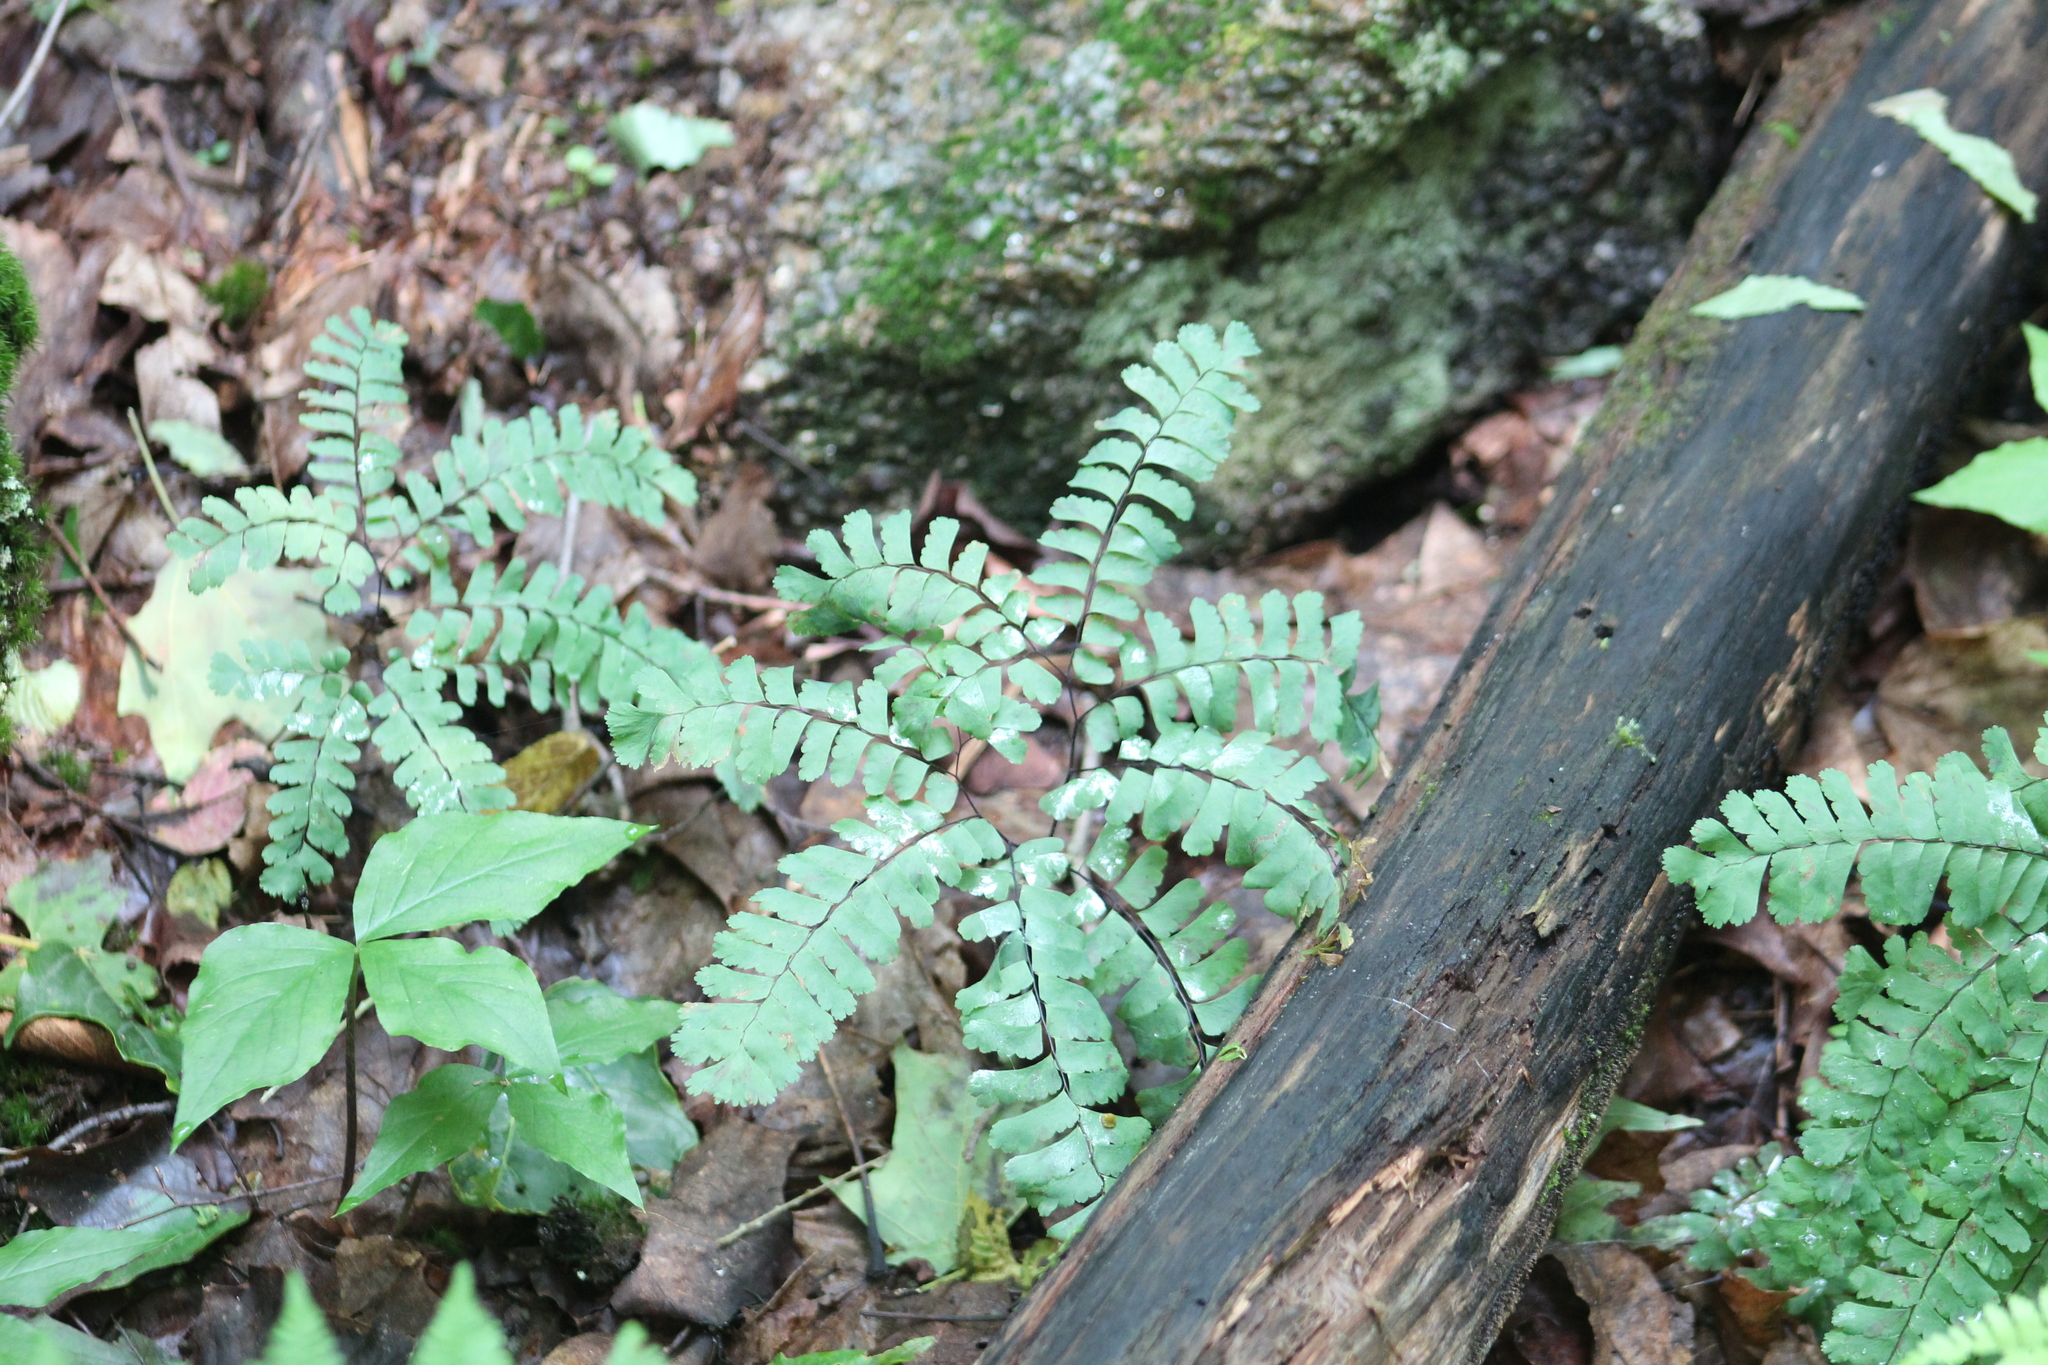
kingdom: Plantae
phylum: Tracheophyta
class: Polypodiopsida
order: Polypodiales
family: Pteridaceae
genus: Adiantum
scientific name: Adiantum pedatum
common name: Five-finger fern
